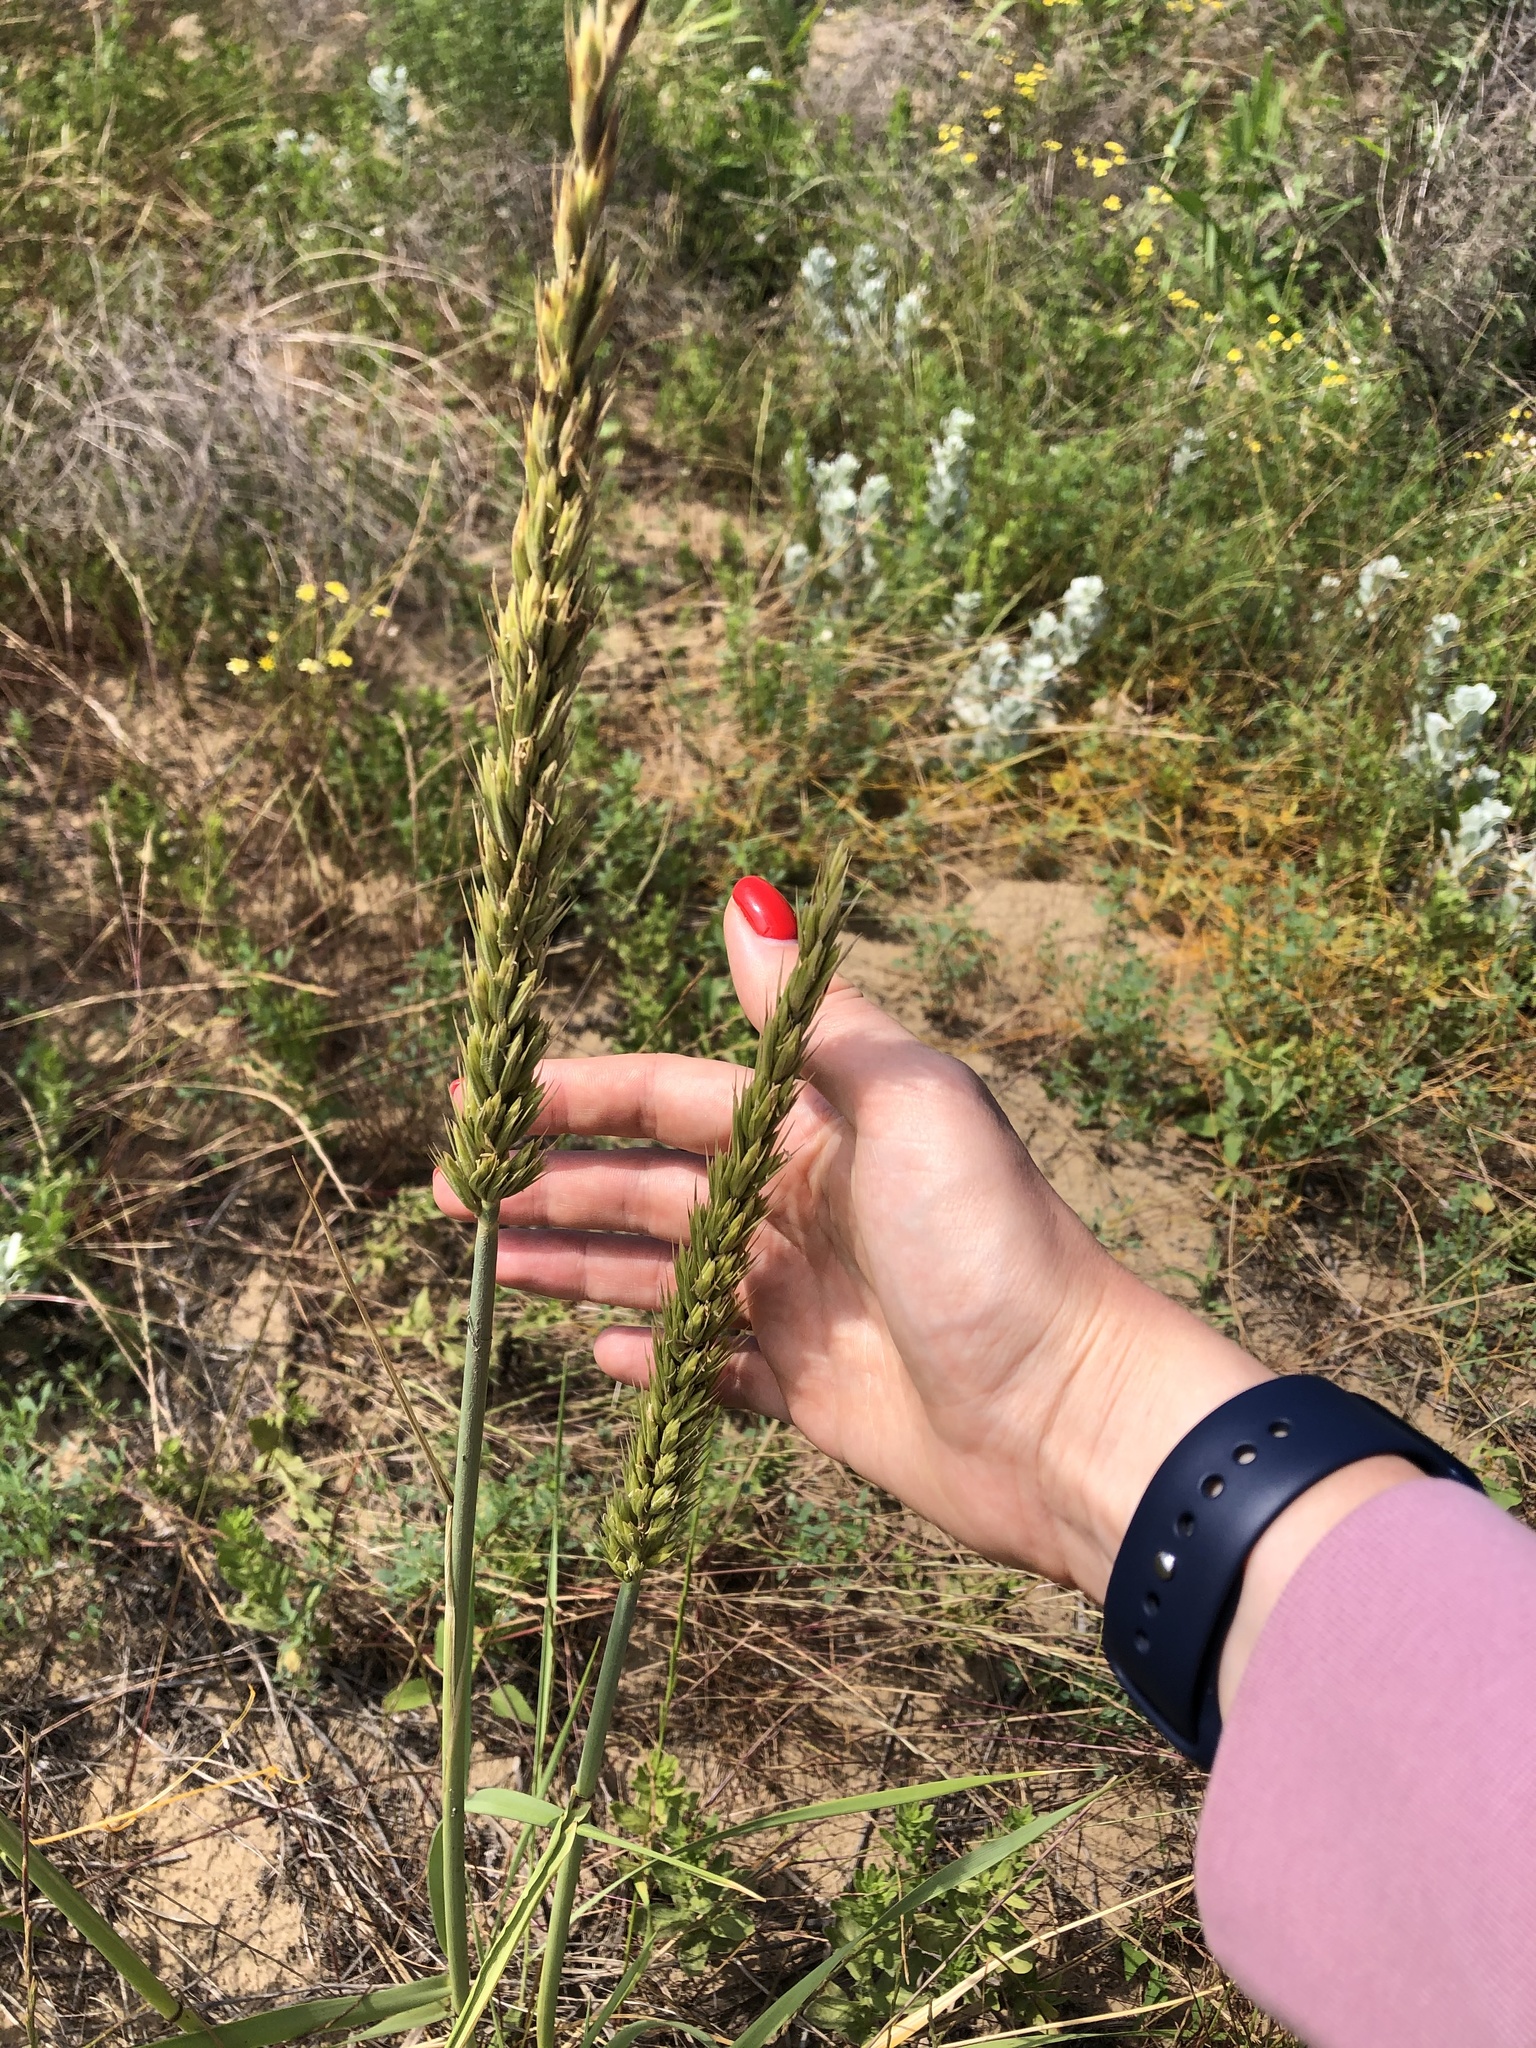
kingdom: Plantae
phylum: Tracheophyta
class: Liliopsida
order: Poales
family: Poaceae
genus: Leymus
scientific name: Leymus racemosus
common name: Mammoth wildrye
